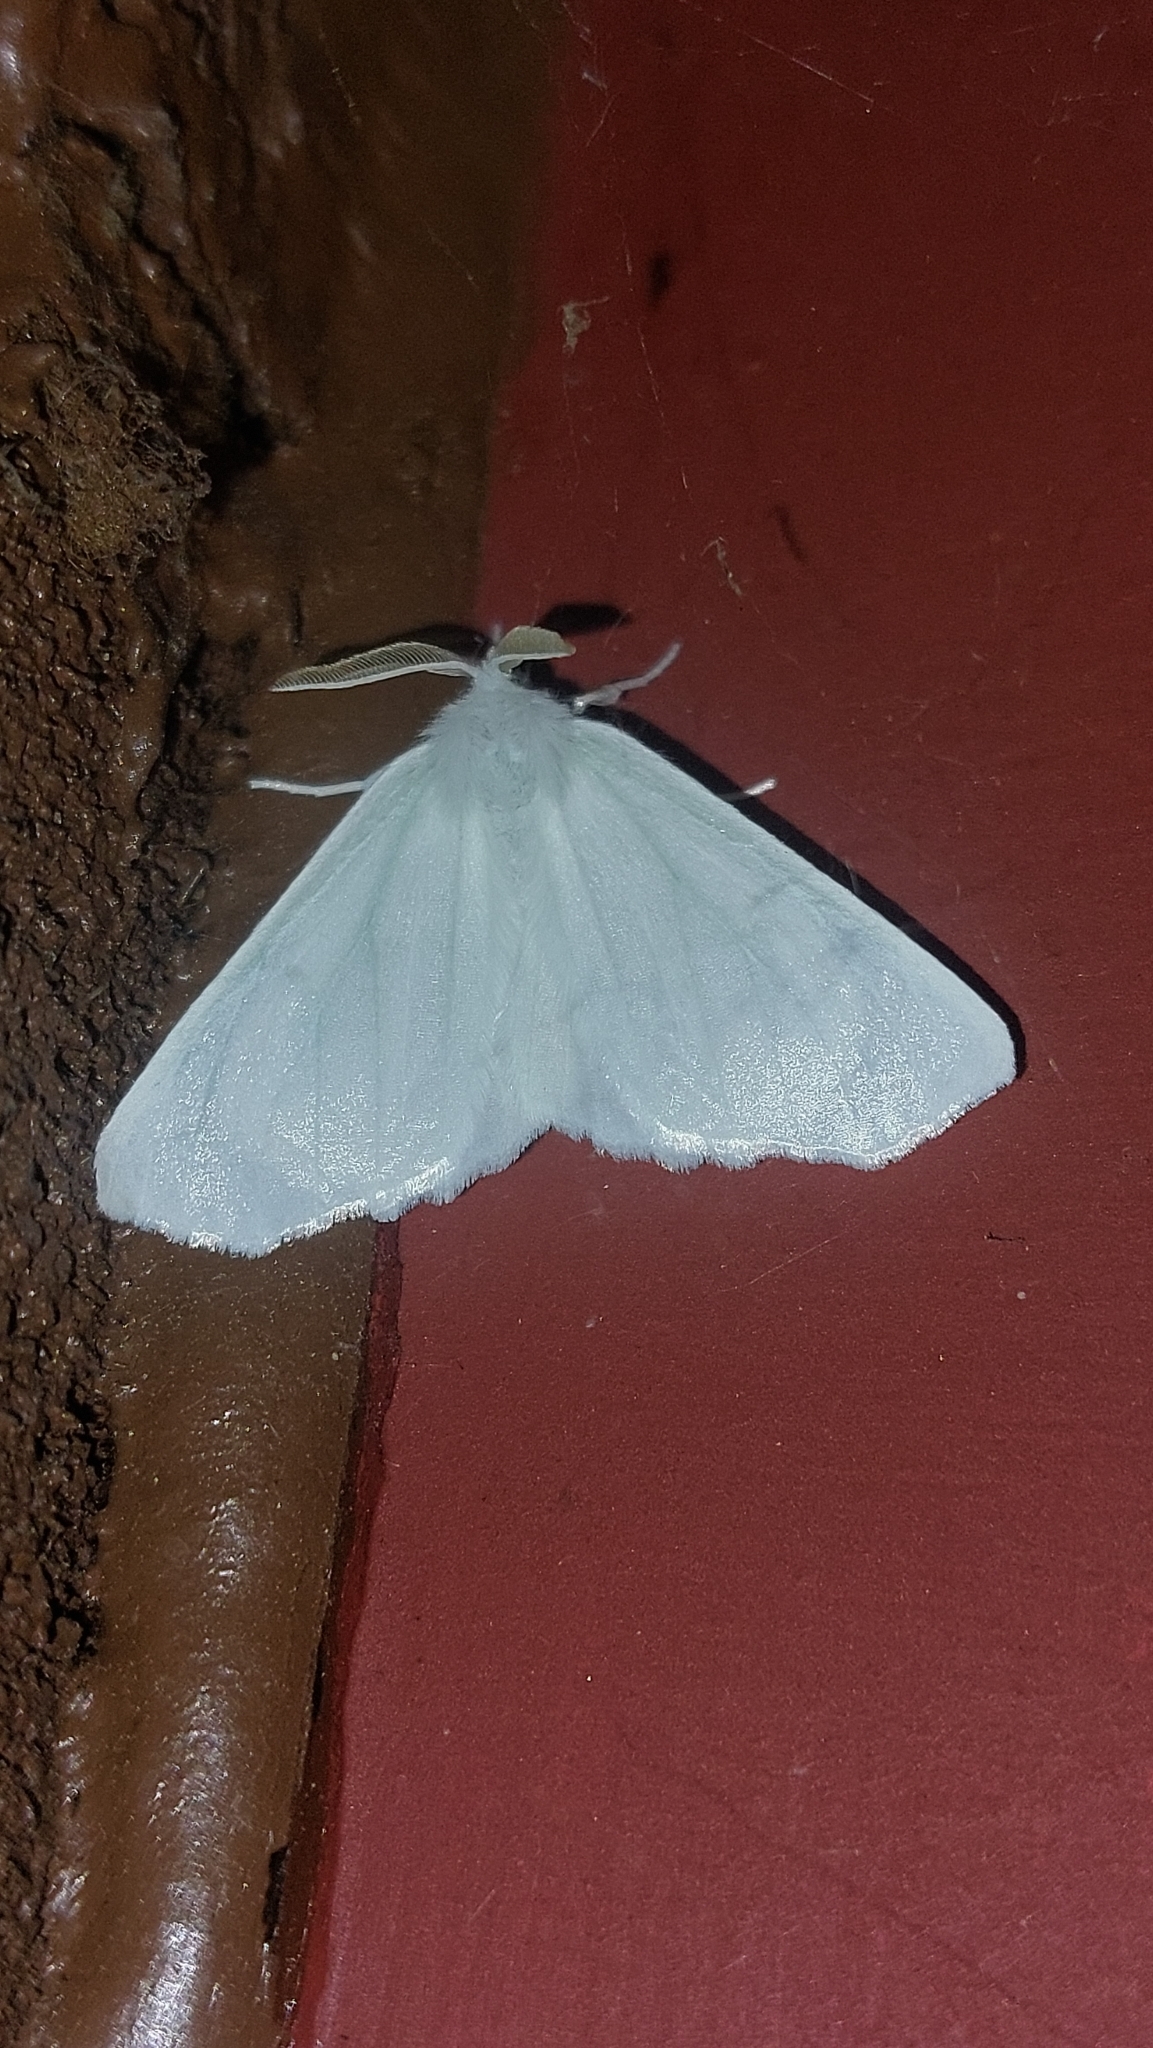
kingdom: Animalia
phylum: Arthropoda
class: Insecta
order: Lepidoptera
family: Geometridae
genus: Ennomos
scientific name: Ennomos subsignaria
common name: Elm spanworm
